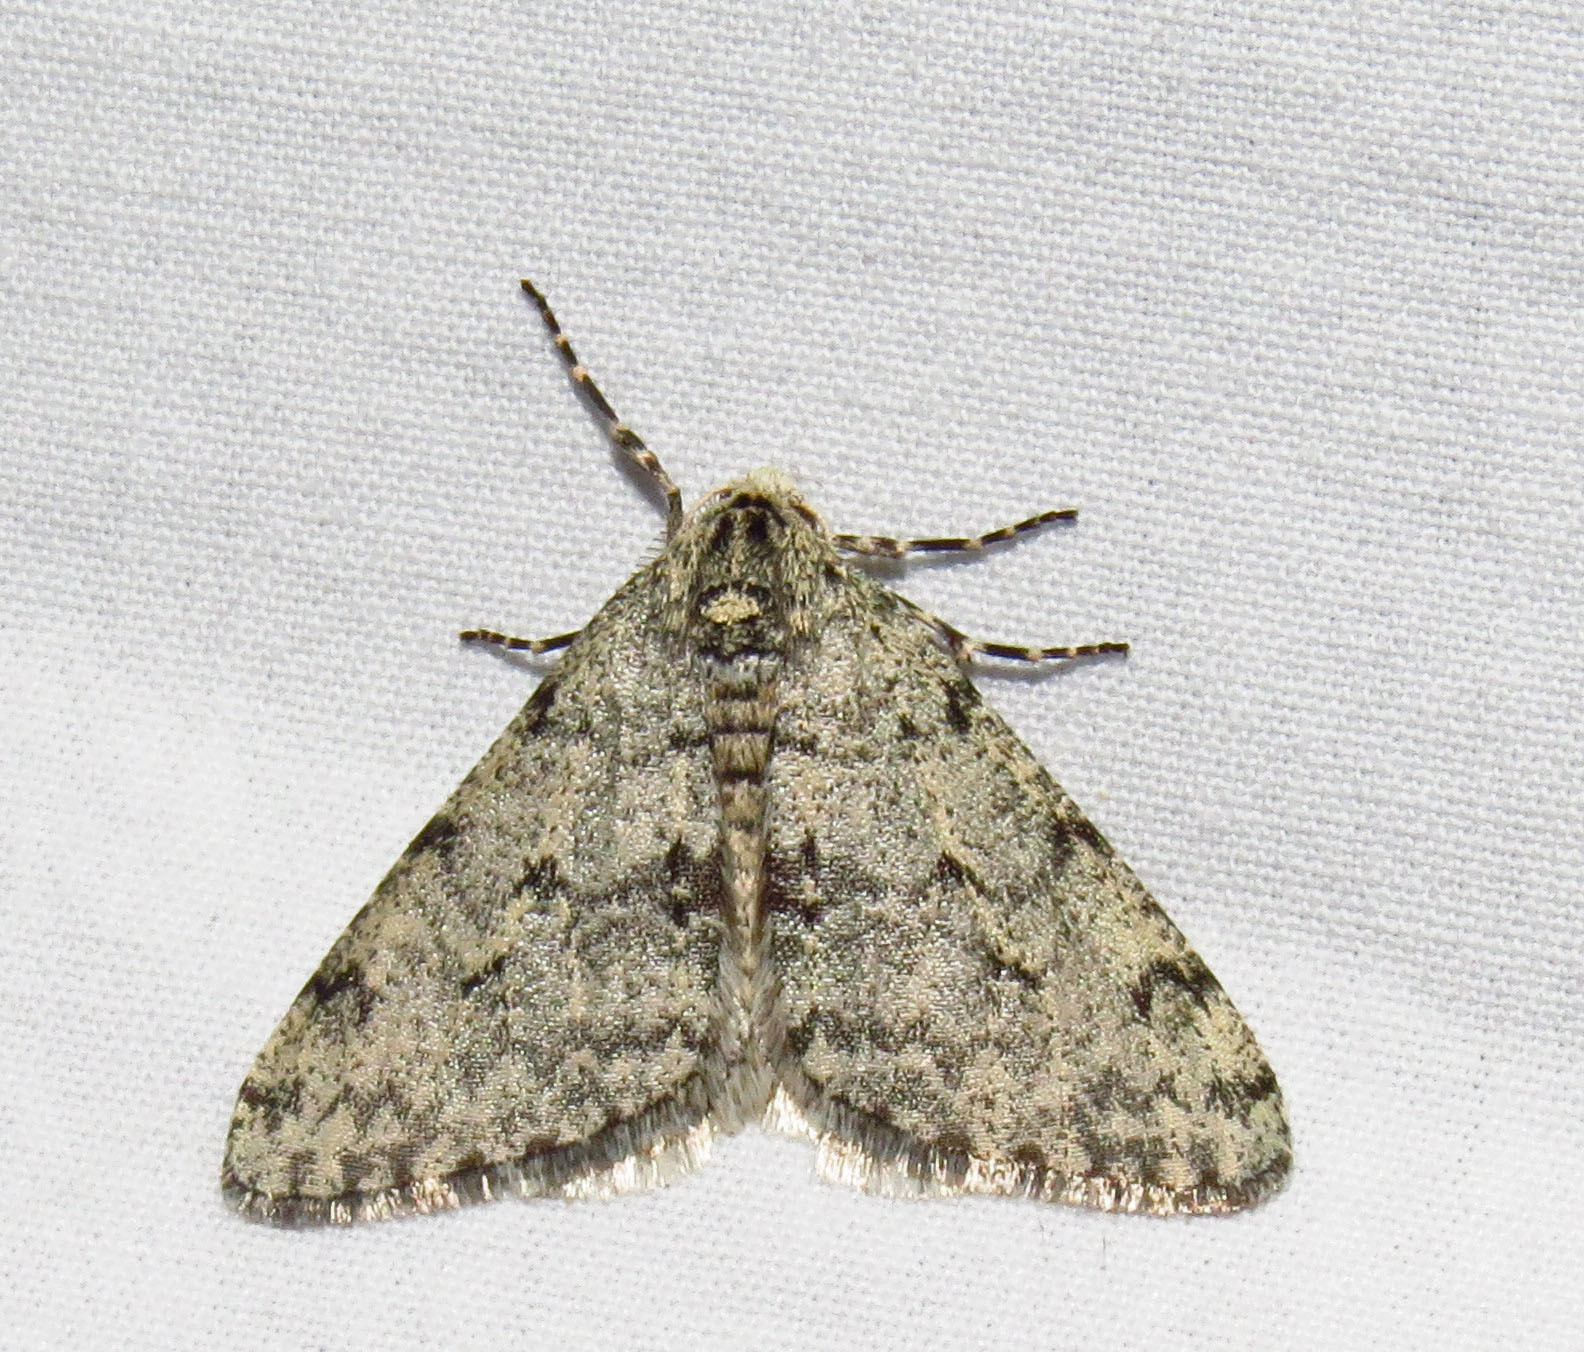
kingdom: Animalia
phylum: Arthropoda
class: Insecta
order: Lepidoptera
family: Geometridae
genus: Phigalia
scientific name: Phigalia strigataria
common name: Small phigalia
